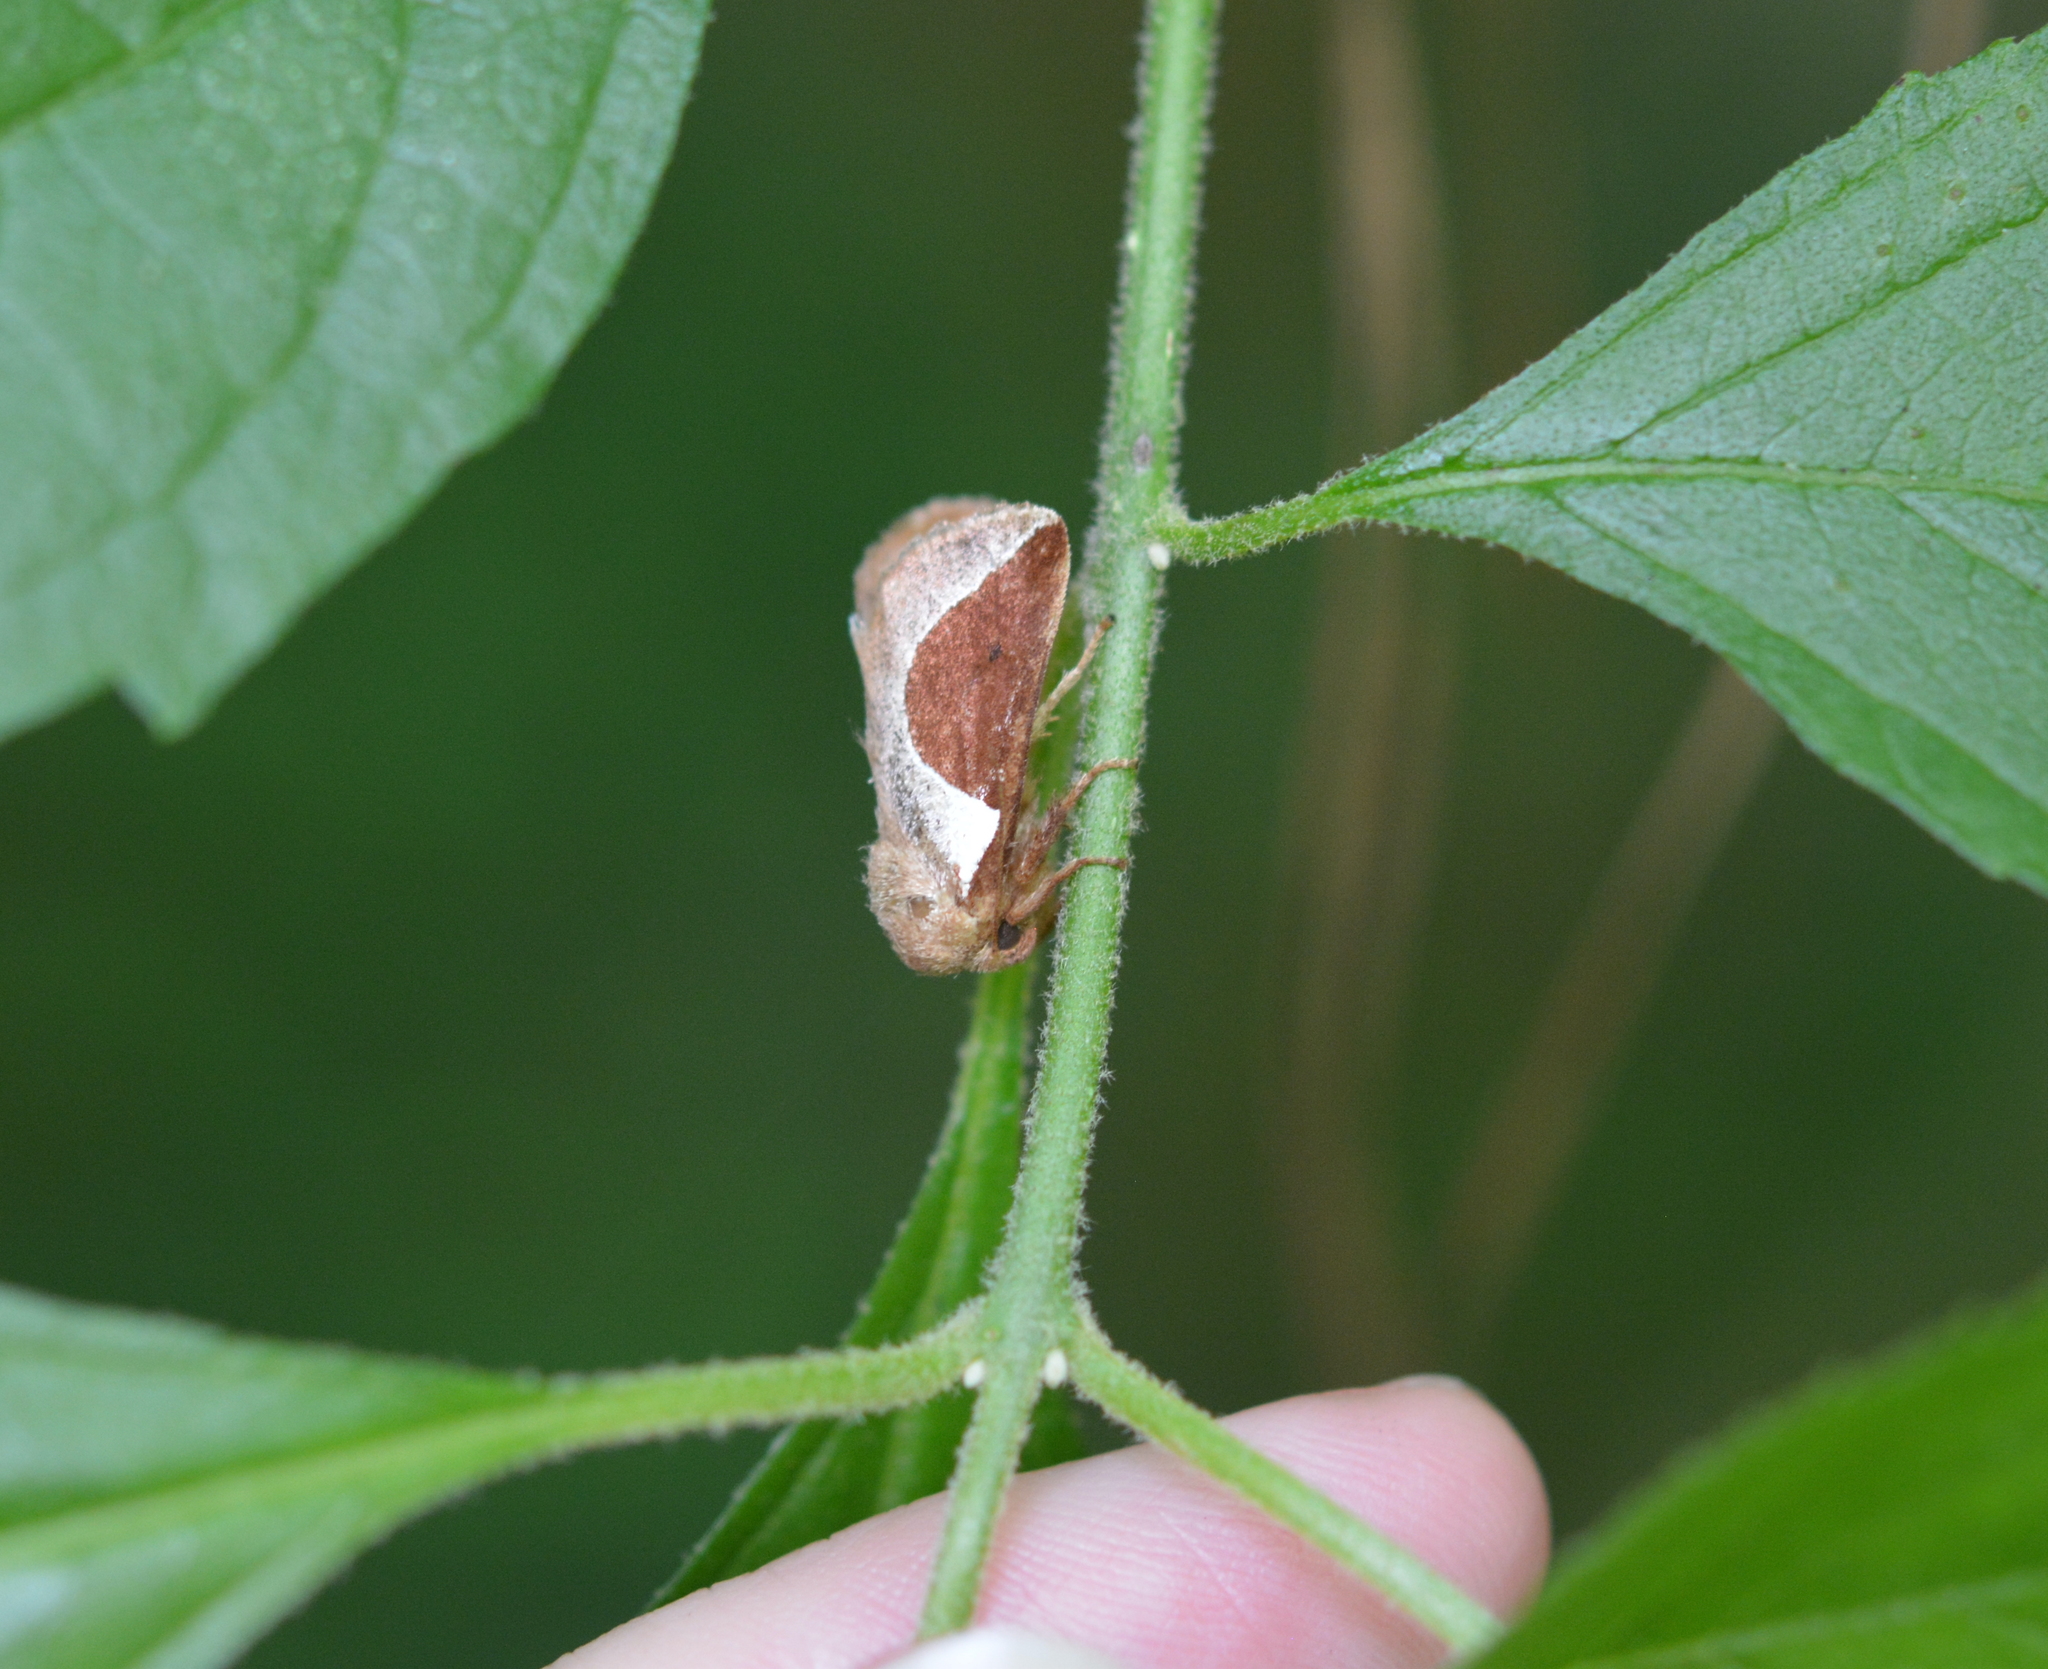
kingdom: Animalia
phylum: Arthropoda
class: Insecta
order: Lepidoptera
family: Limacodidae
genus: Prolimacodes
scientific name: Prolimacodes badia
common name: Skiff moth
